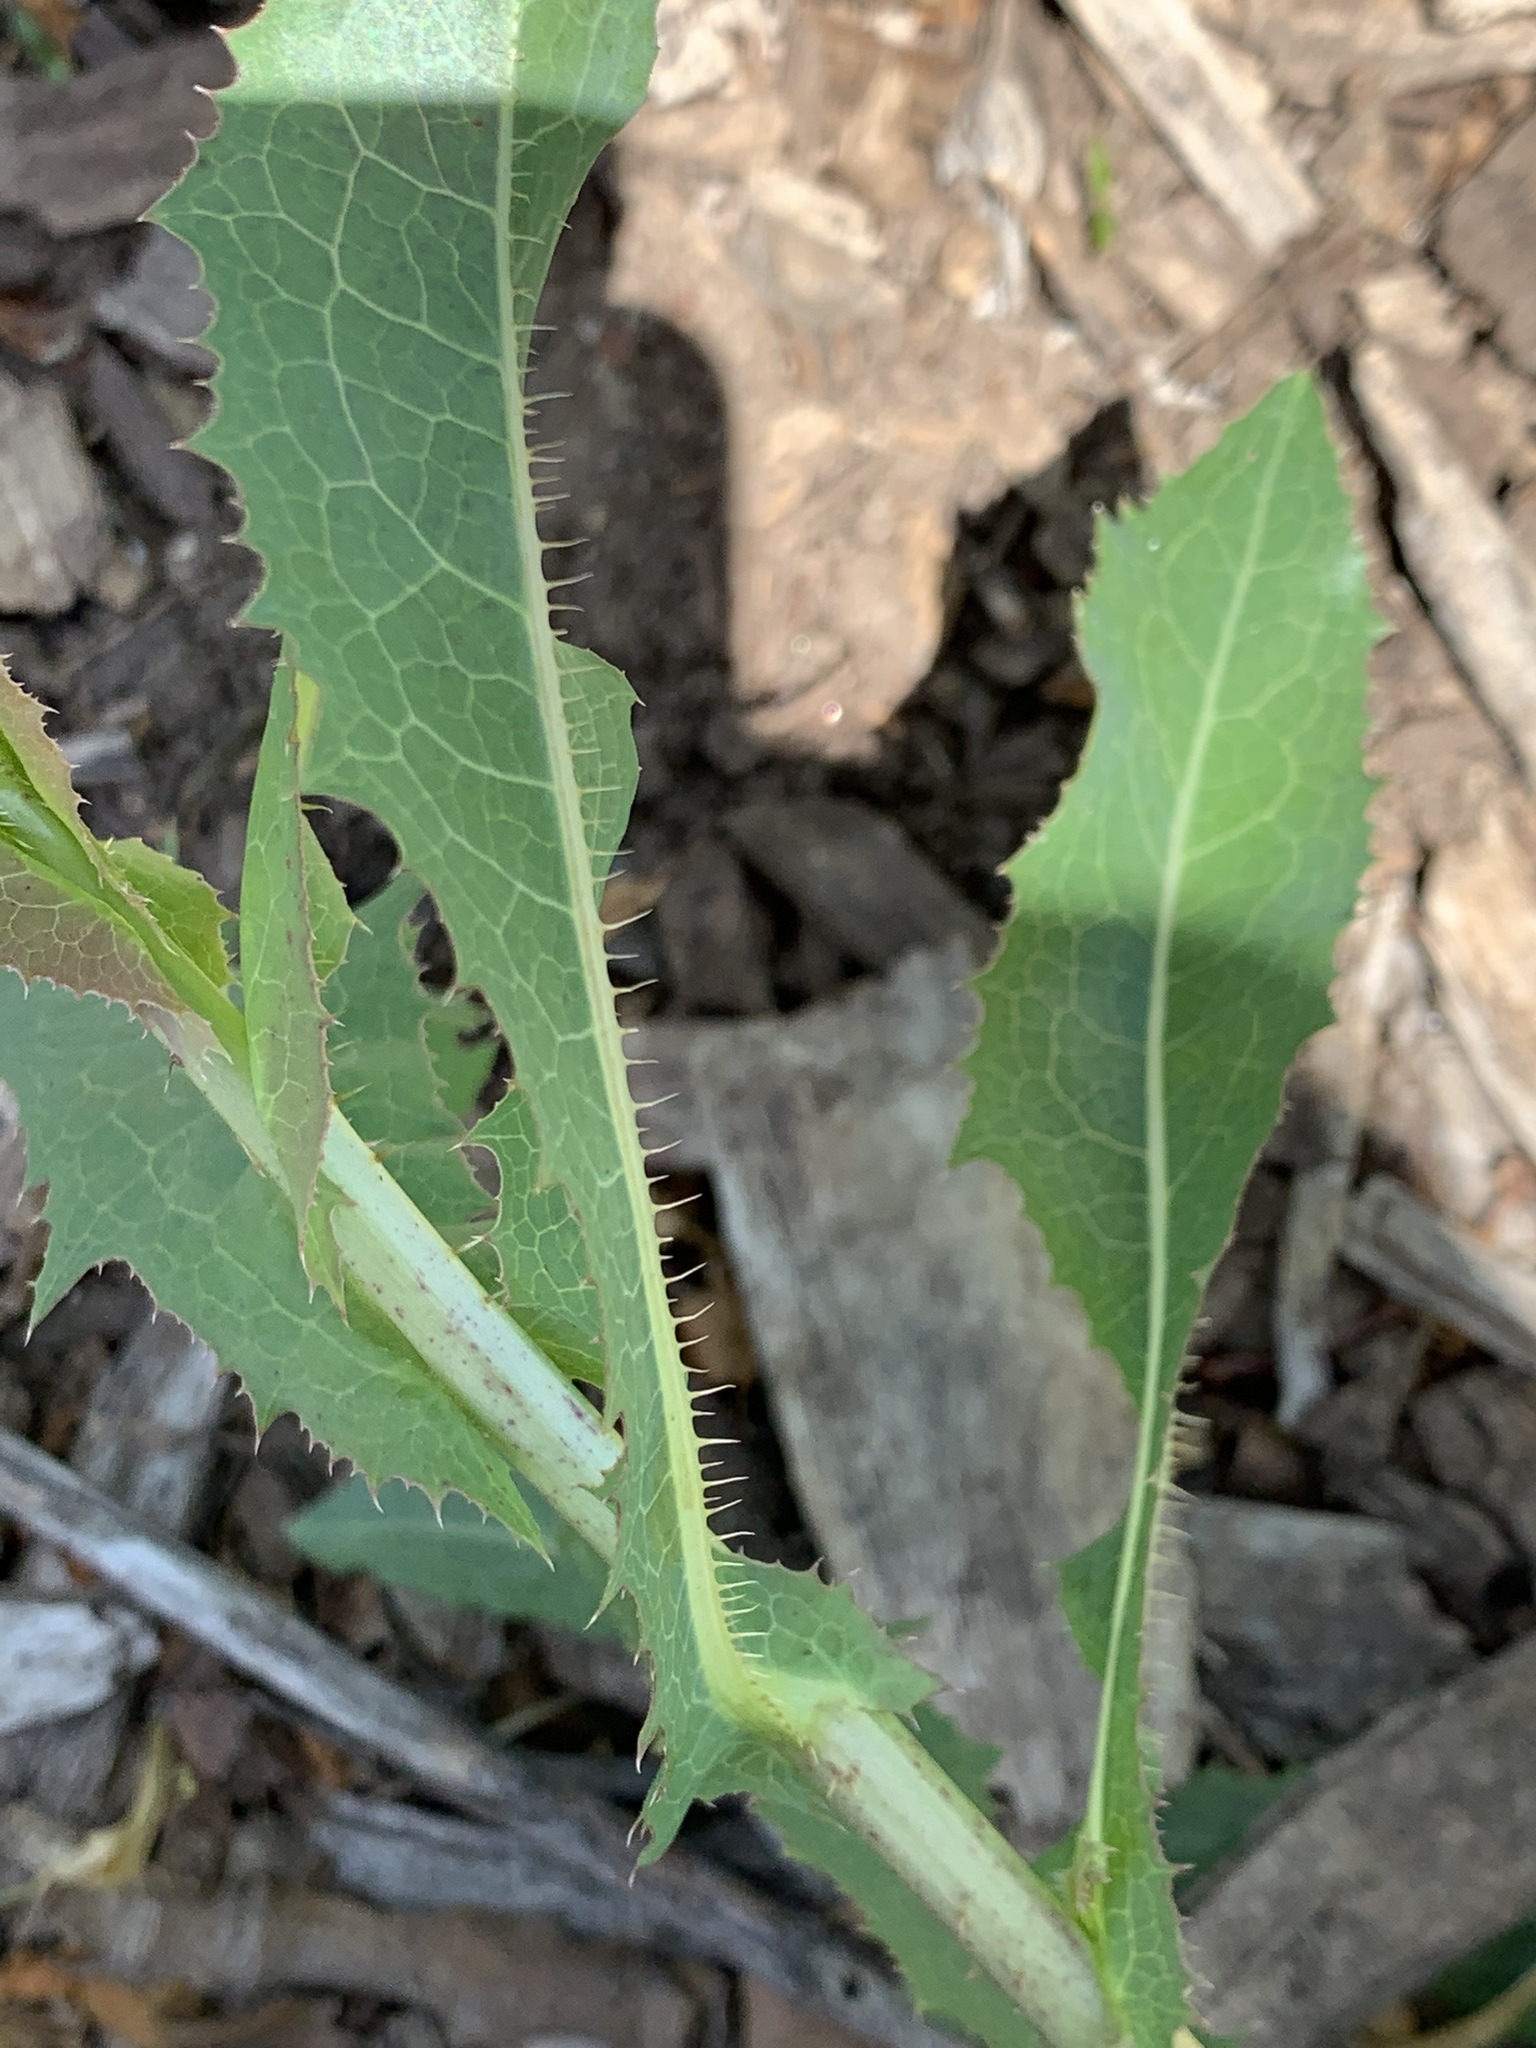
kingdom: Plantae
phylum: Tracheophyta
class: Magnoliopsida
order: Asterales
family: Asteraceae
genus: Lactuca
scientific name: Lactuca serriola
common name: Prickly lettuce
